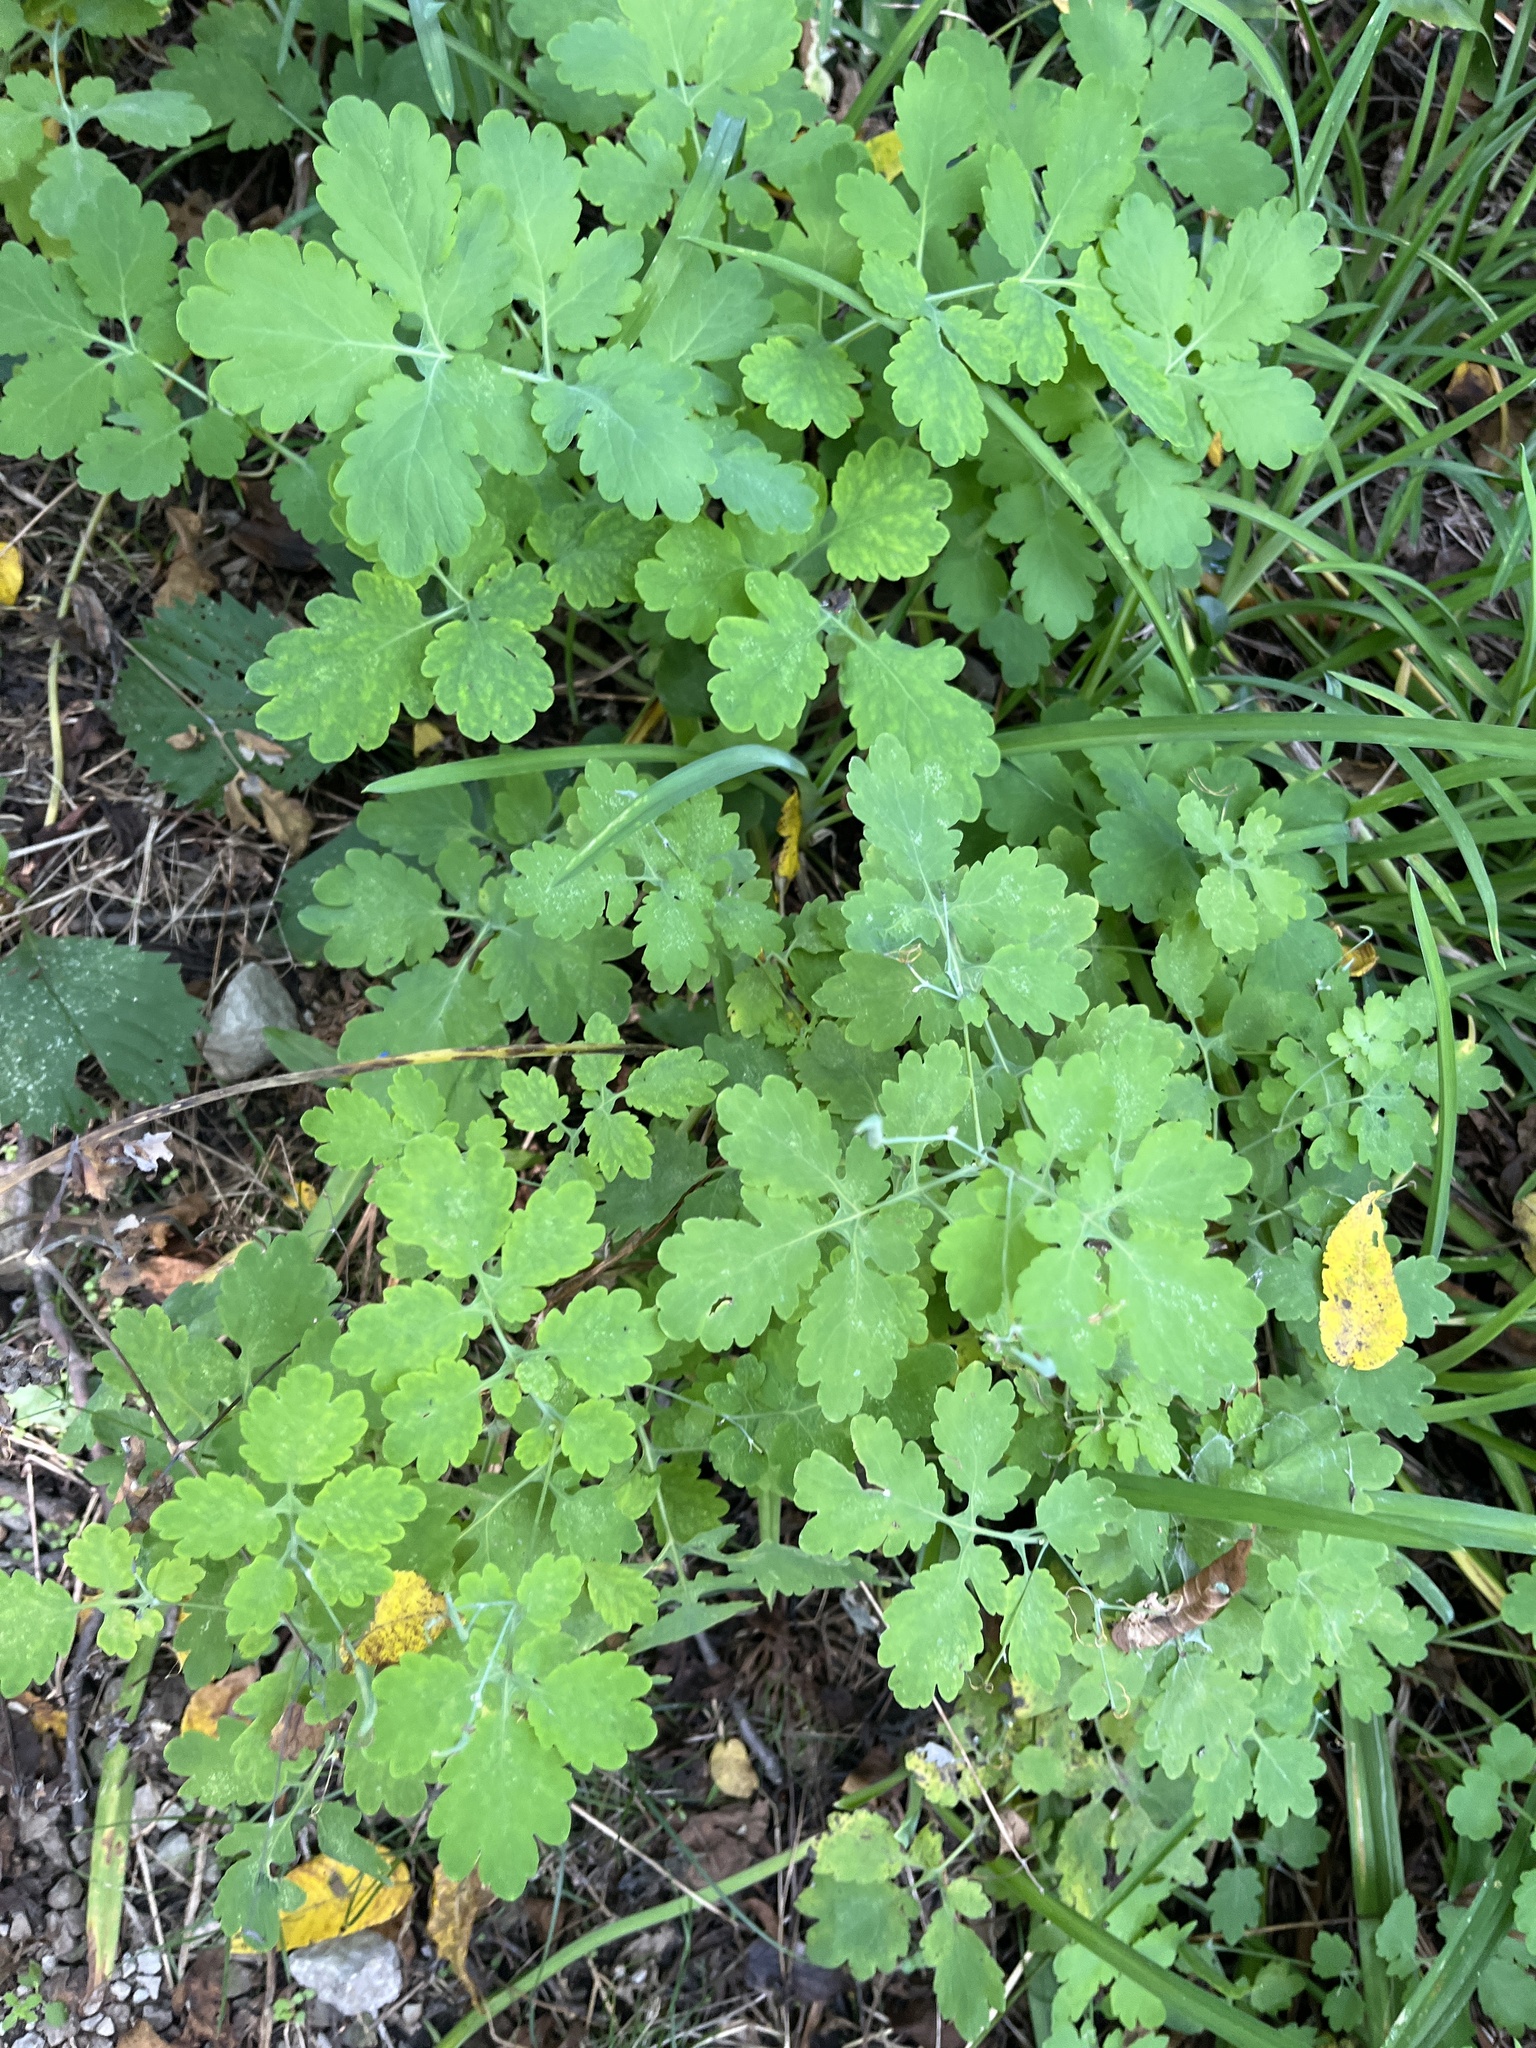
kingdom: Plantae
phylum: Tracheophyta
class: Magnoliopsida
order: Ranunculales
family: Papaveraceae
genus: Chelidonium
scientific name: Chelidonium majus
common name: Greater celandine
